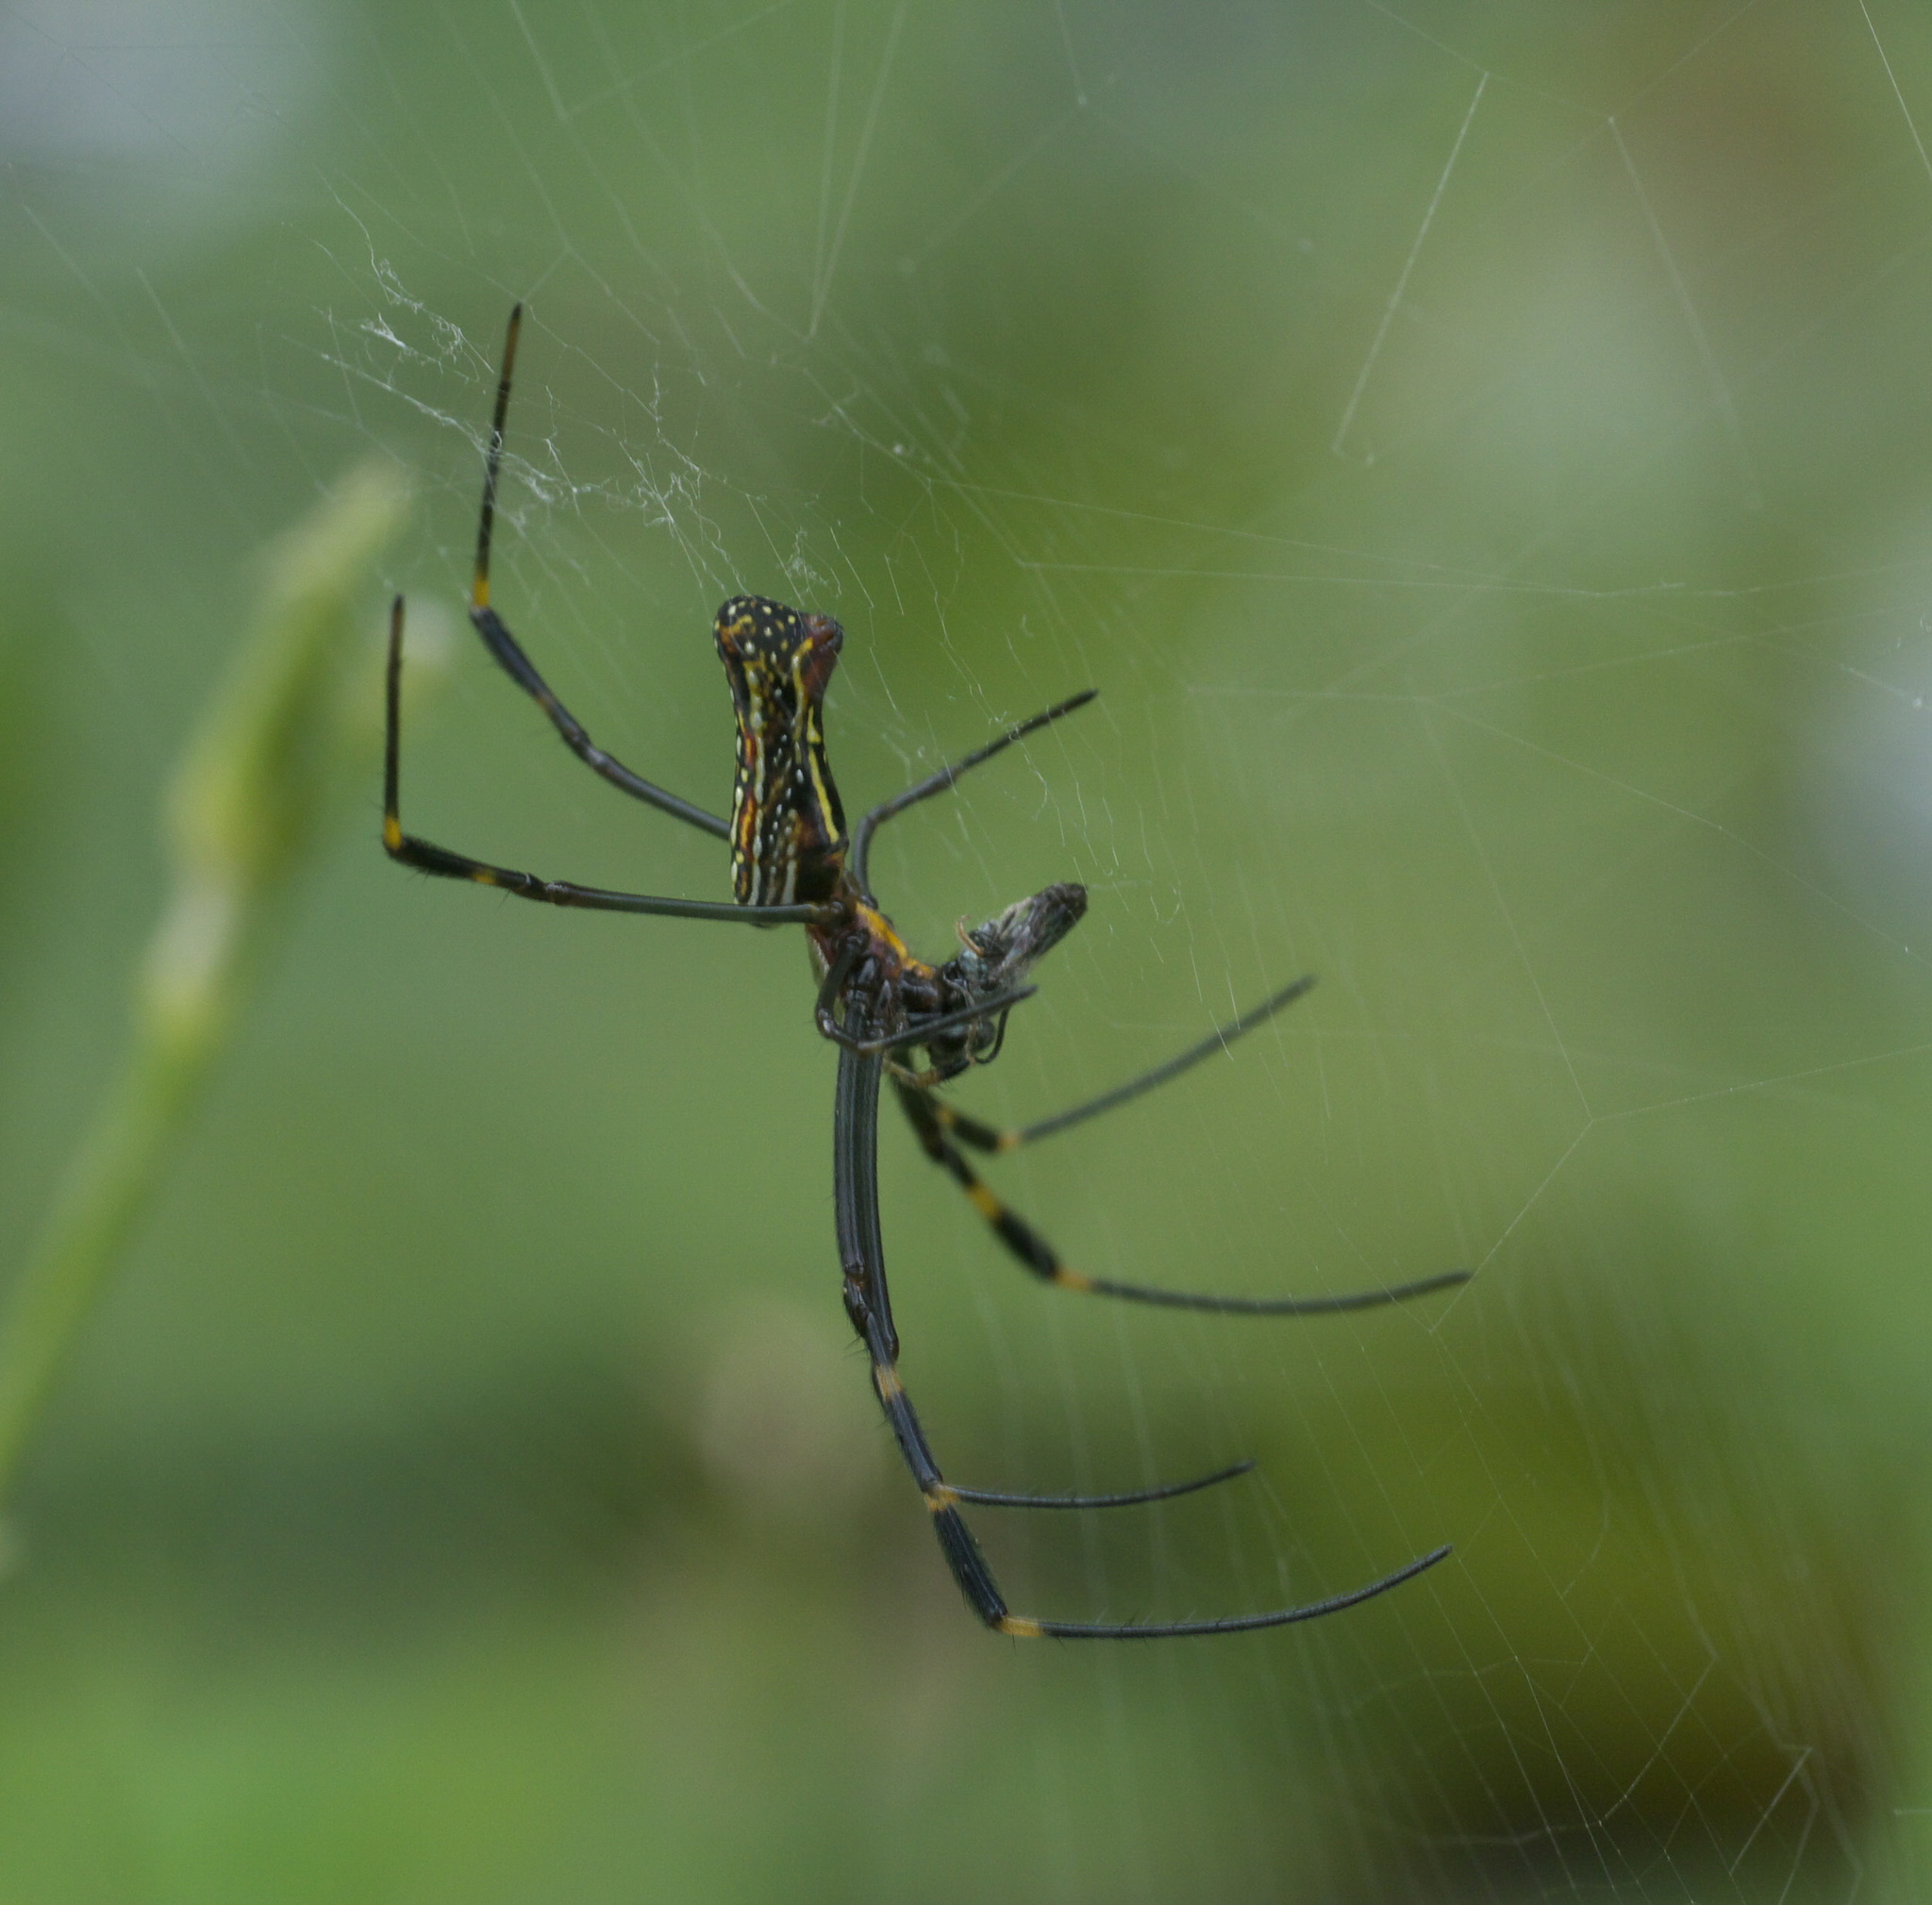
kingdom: Animalia
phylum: Arthropoda
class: Arachnida
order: Araneae
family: Araneidae
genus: Trichonephila
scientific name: Trichonephila clavipes
